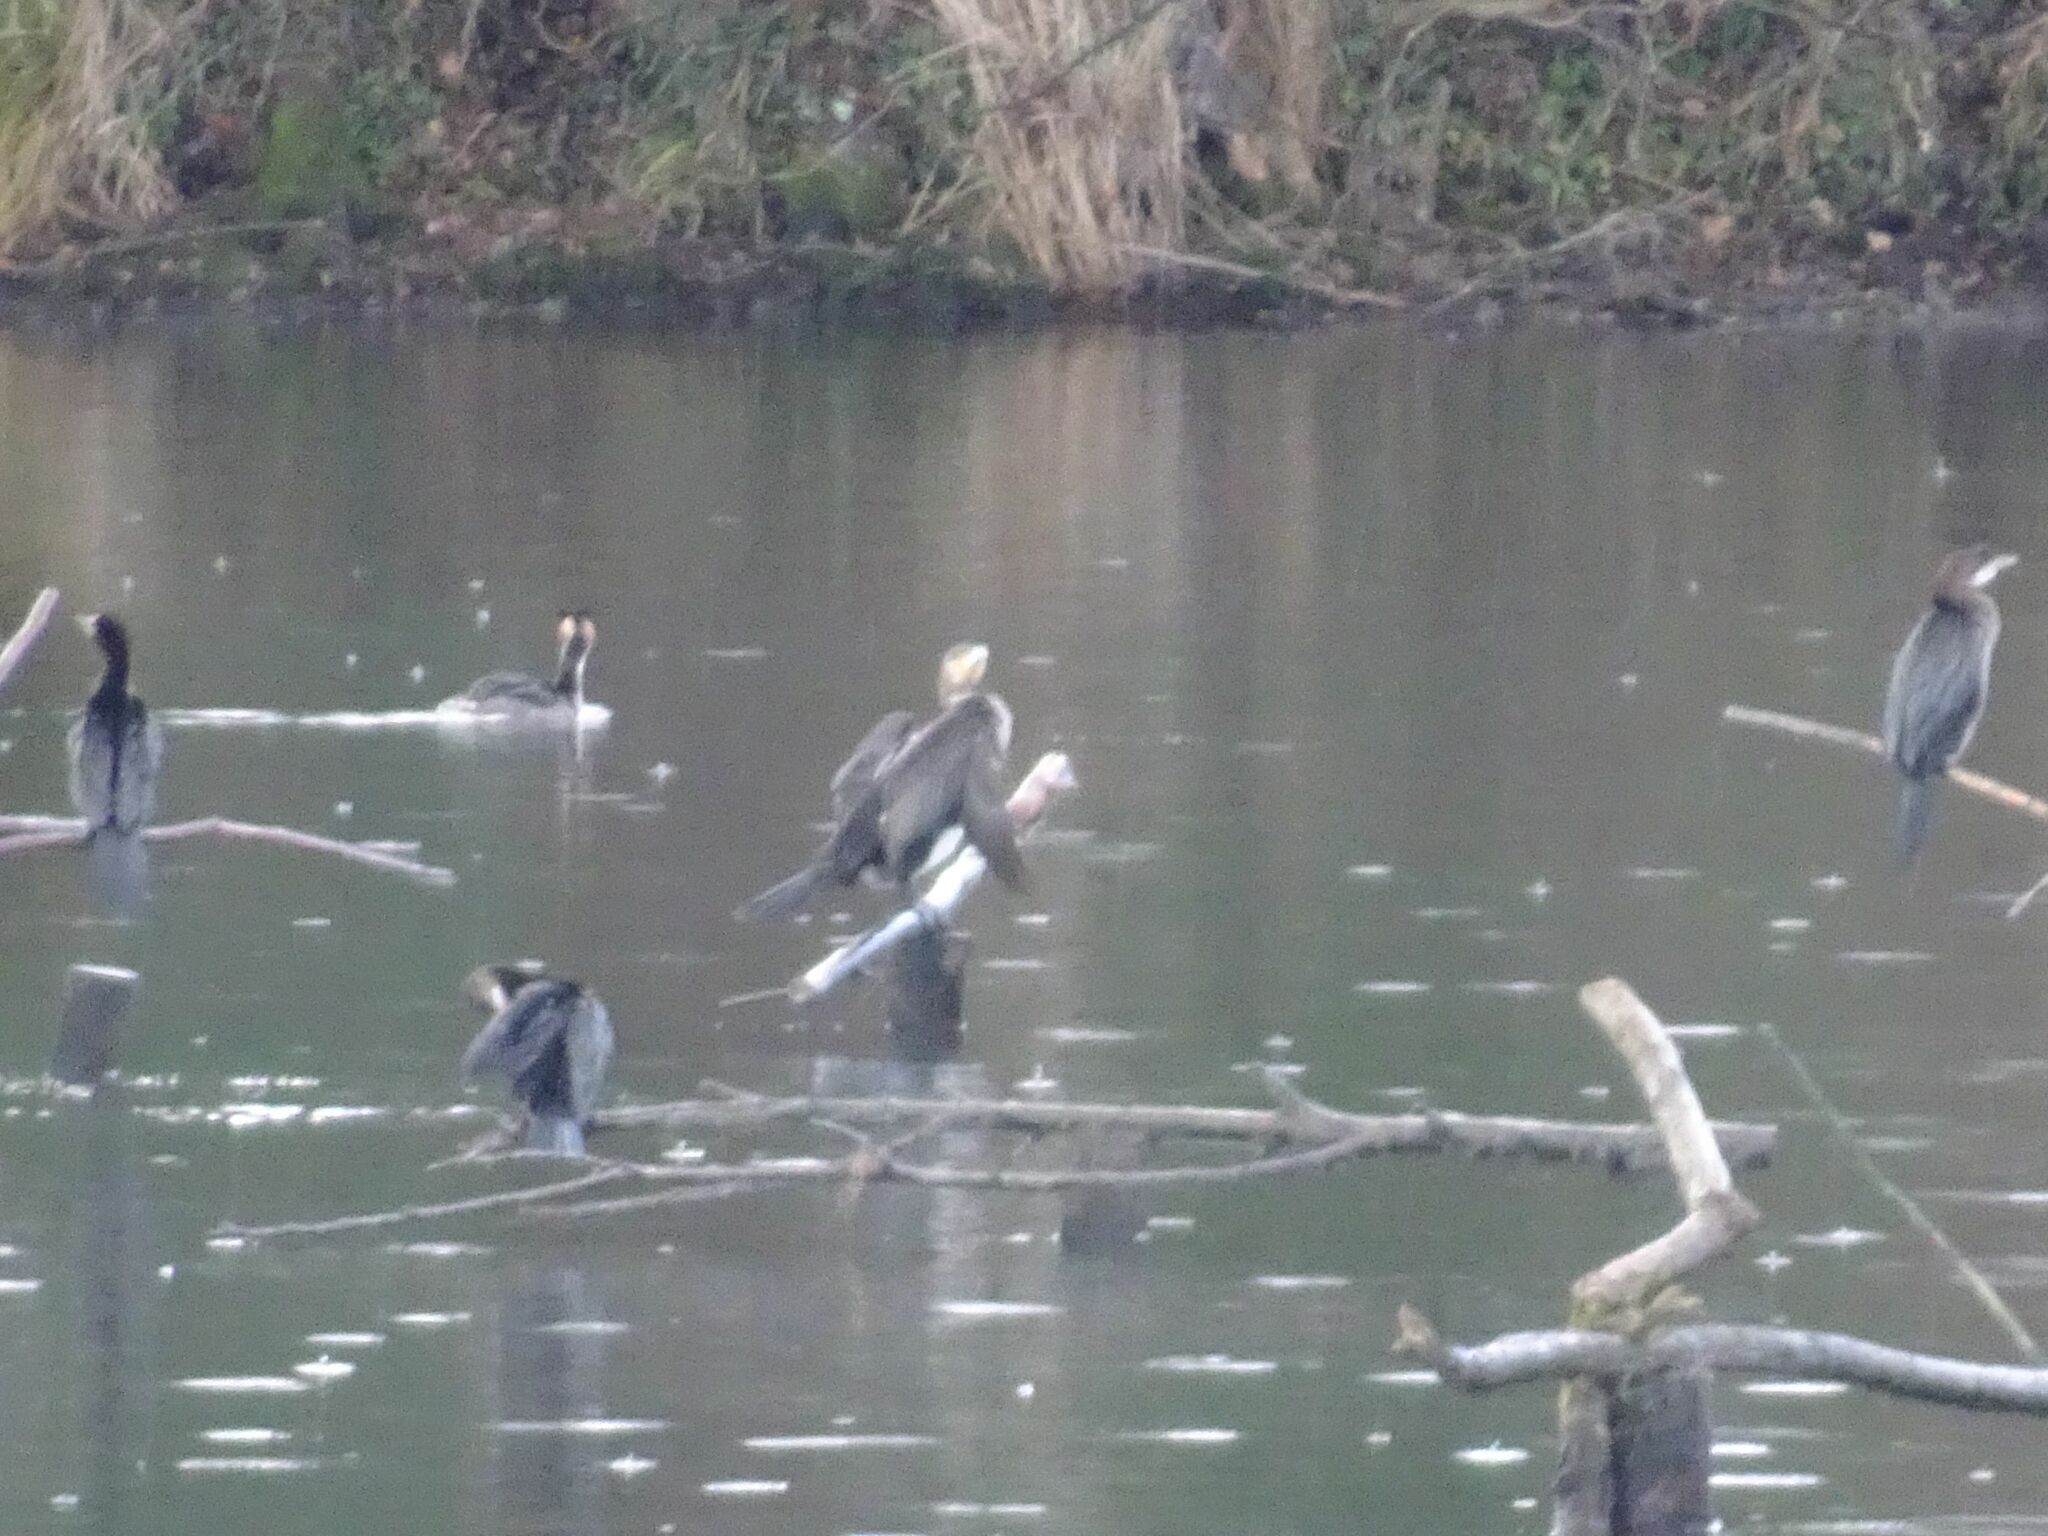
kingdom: Animalia
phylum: Chordata
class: Aves
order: Suliformes
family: Phalacrocoracidae
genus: Microcarbo
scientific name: Microcarbo pygmaeus
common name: Pygmy cormorant
